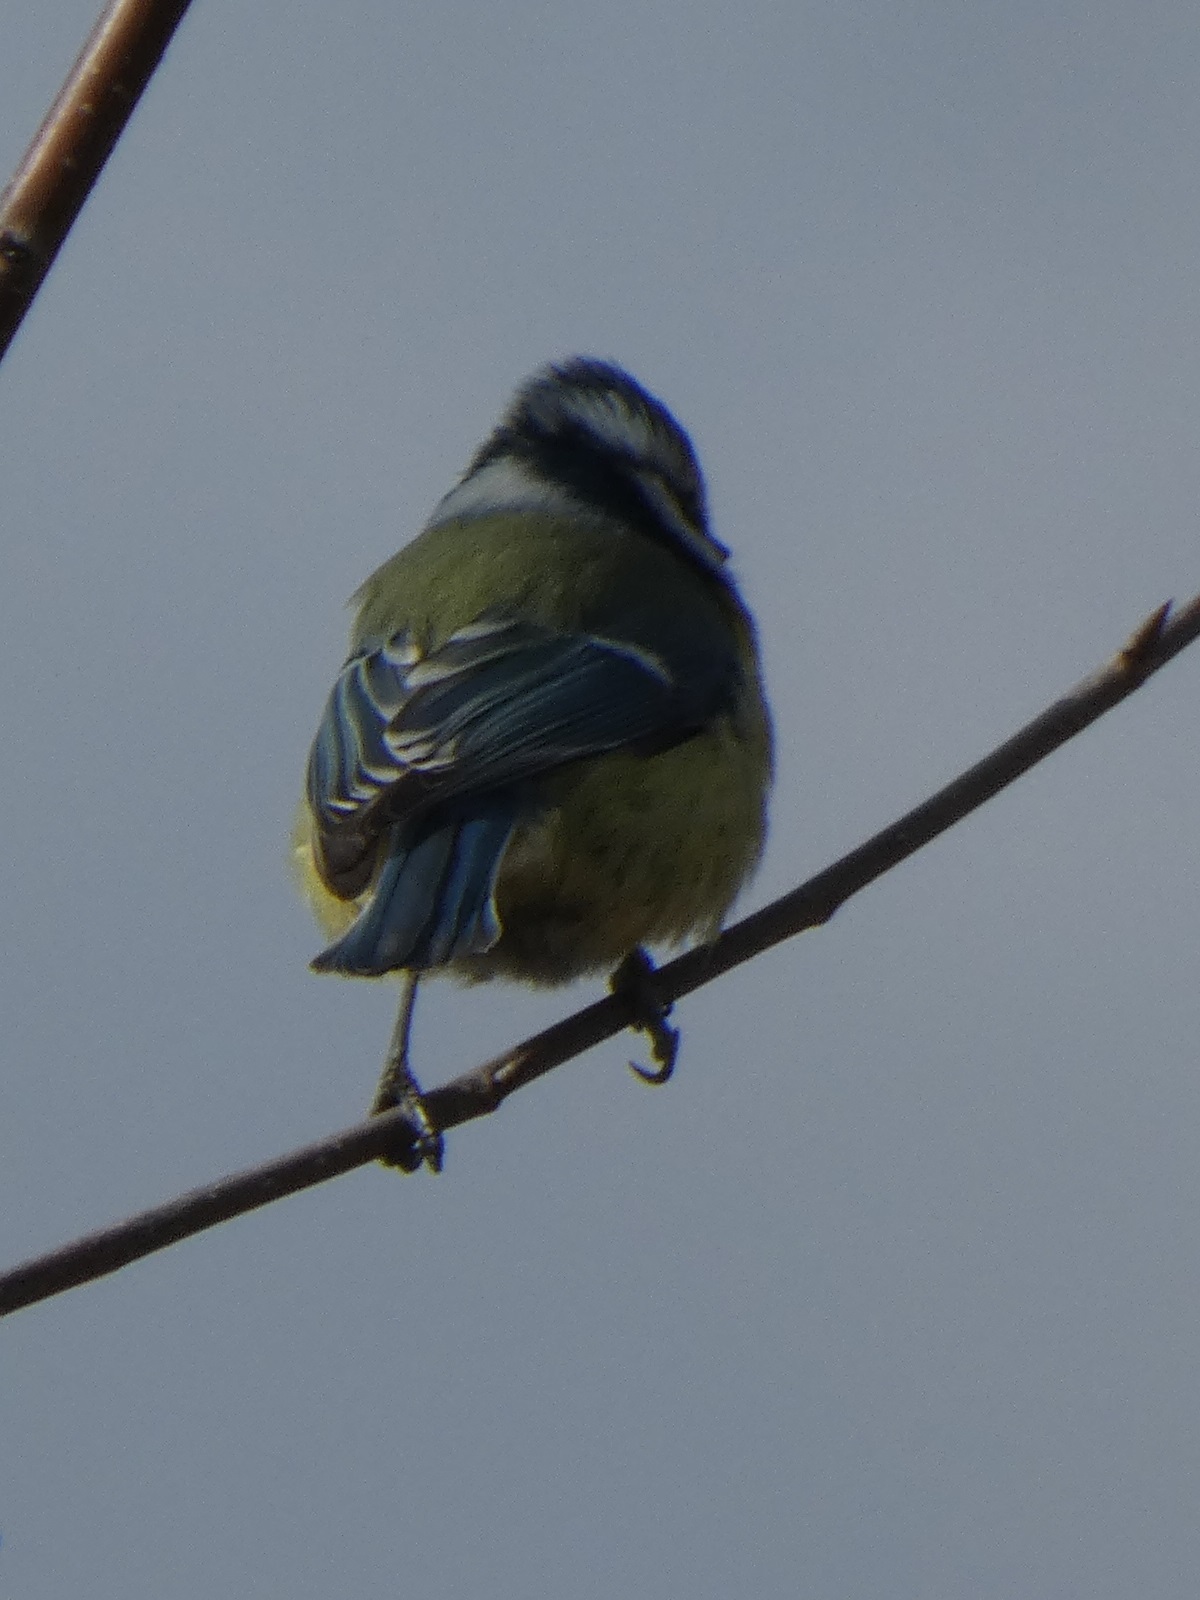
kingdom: Animalia
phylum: Chordata
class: Aves
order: Passeriformes
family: Paridae
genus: Cyanistes
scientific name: Cyanistes caeruleus
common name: Eurasian blue tit
